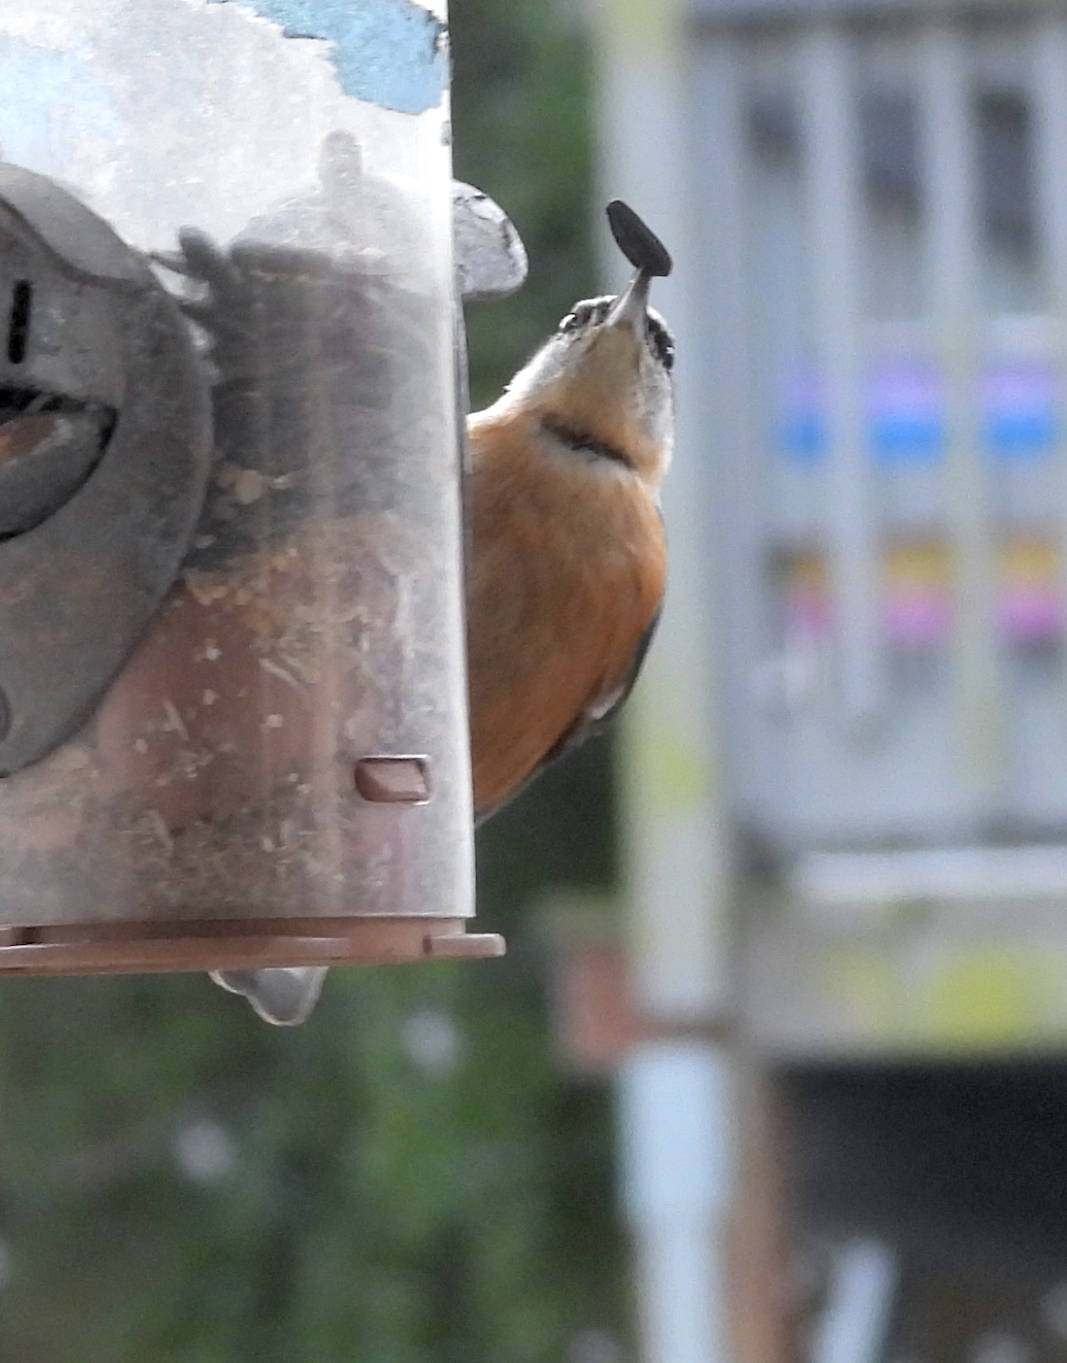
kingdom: Animalia
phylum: Chordata
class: Aves
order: Passeriformes
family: Sittidae
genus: Sitta
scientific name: Sitta canadensis
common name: Red-breasted nuthatch
